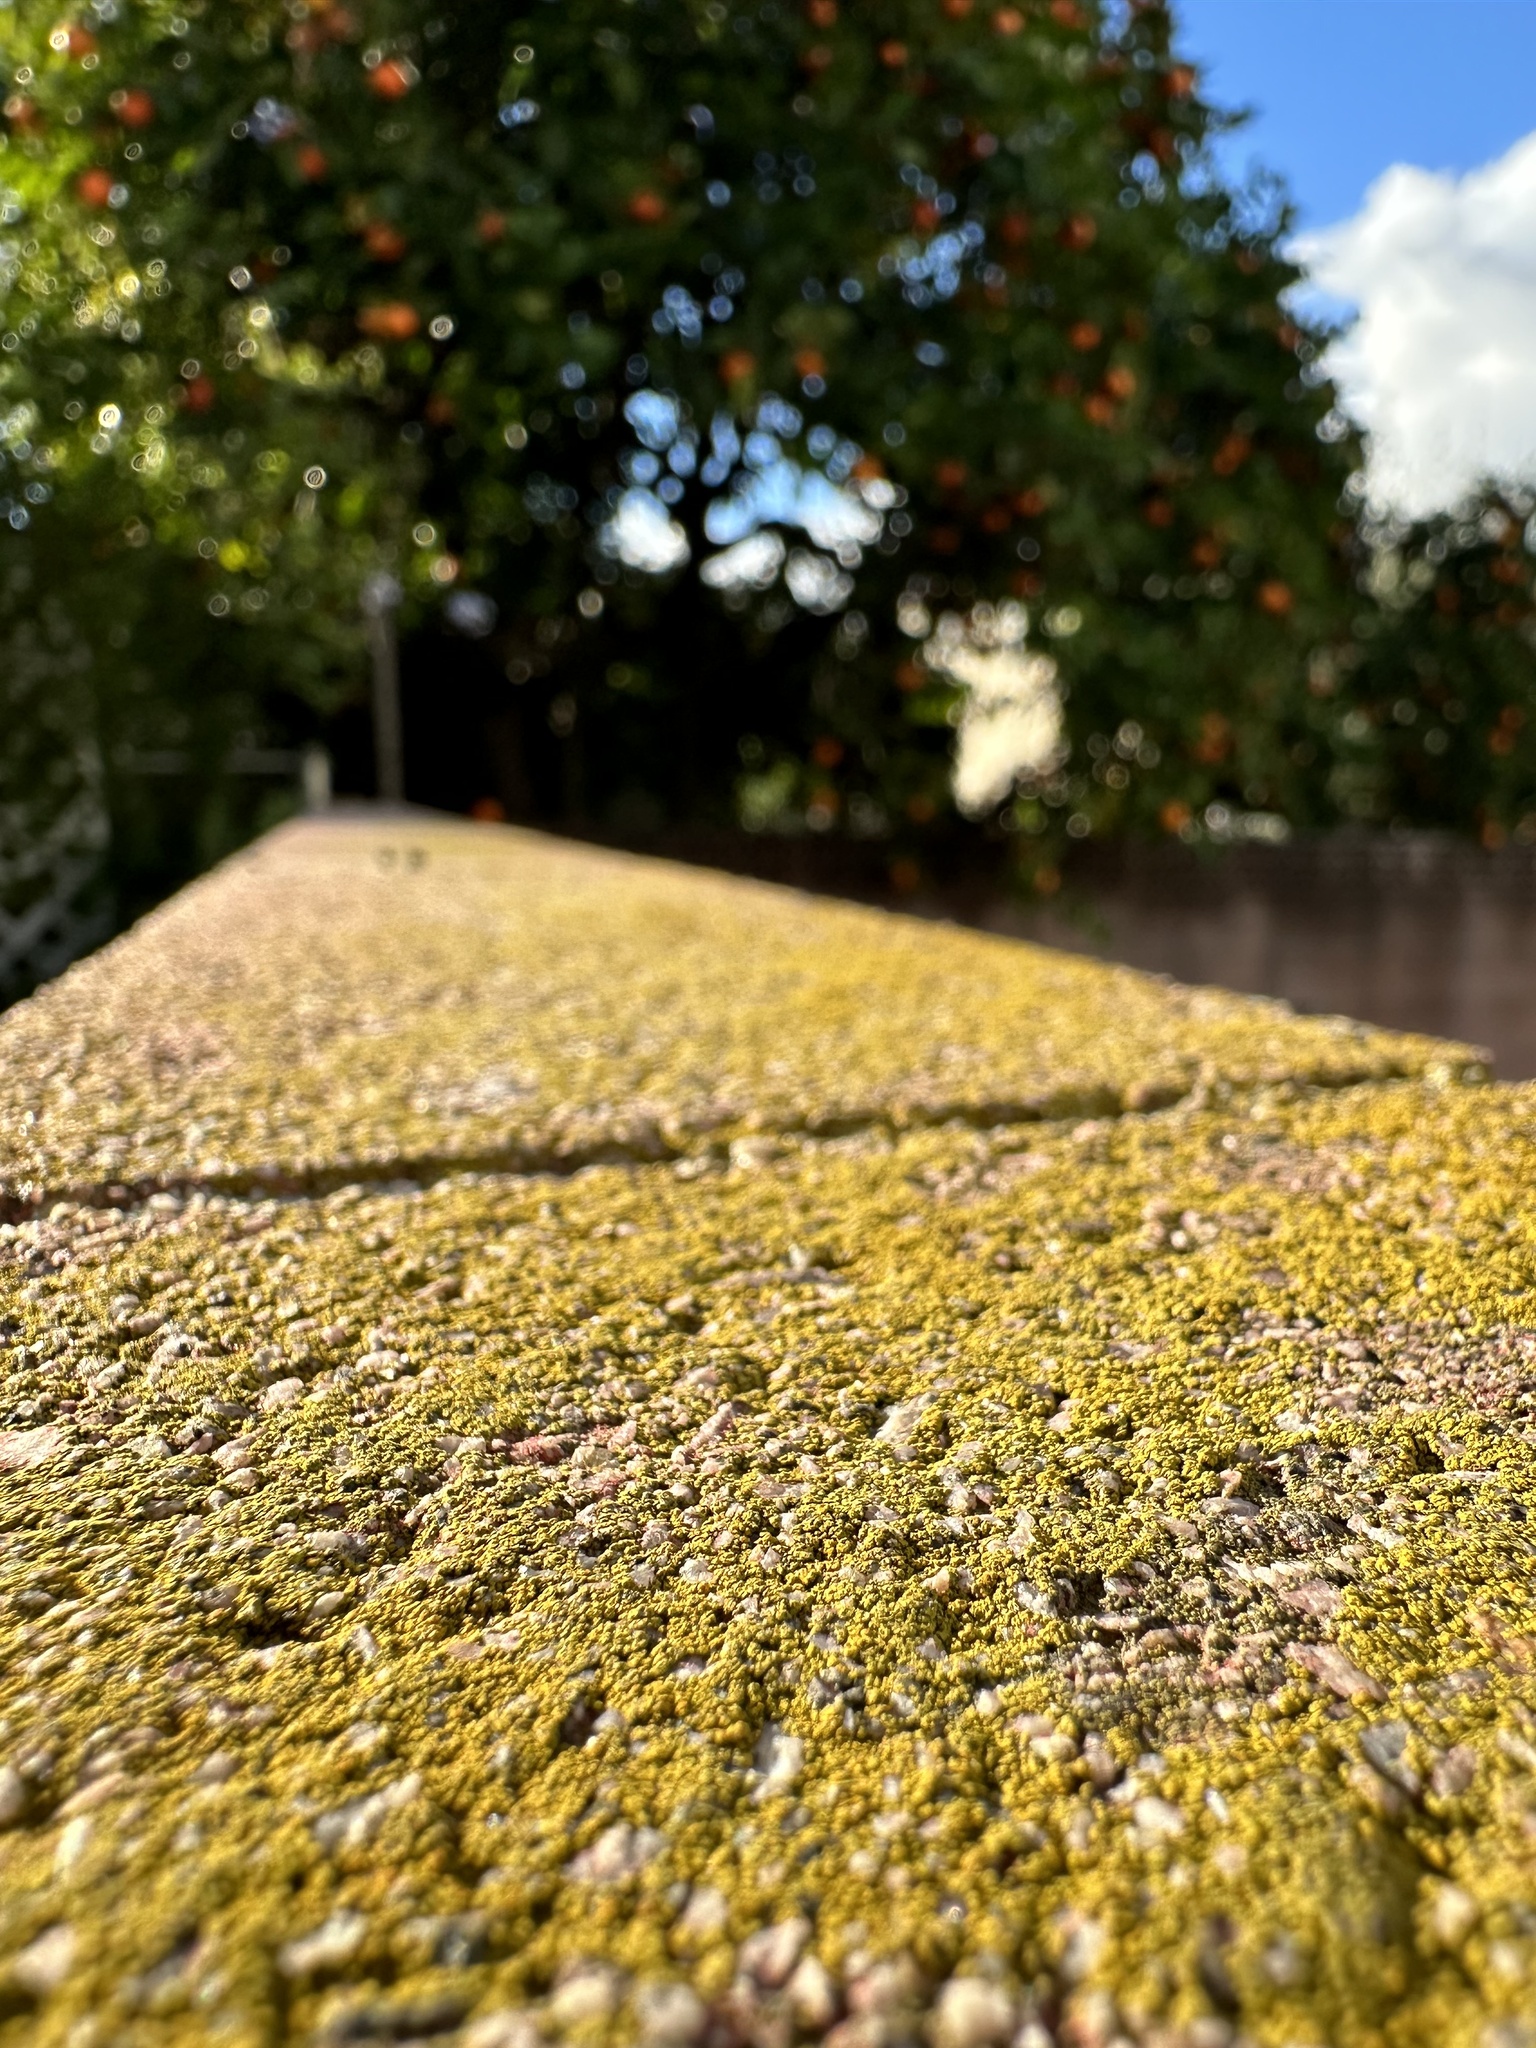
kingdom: Fungi
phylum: Ascomycota
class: Lecanoromycetes
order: Acarosporales
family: Acarosporaceae
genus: Acarospora
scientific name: Acarospora socialis
